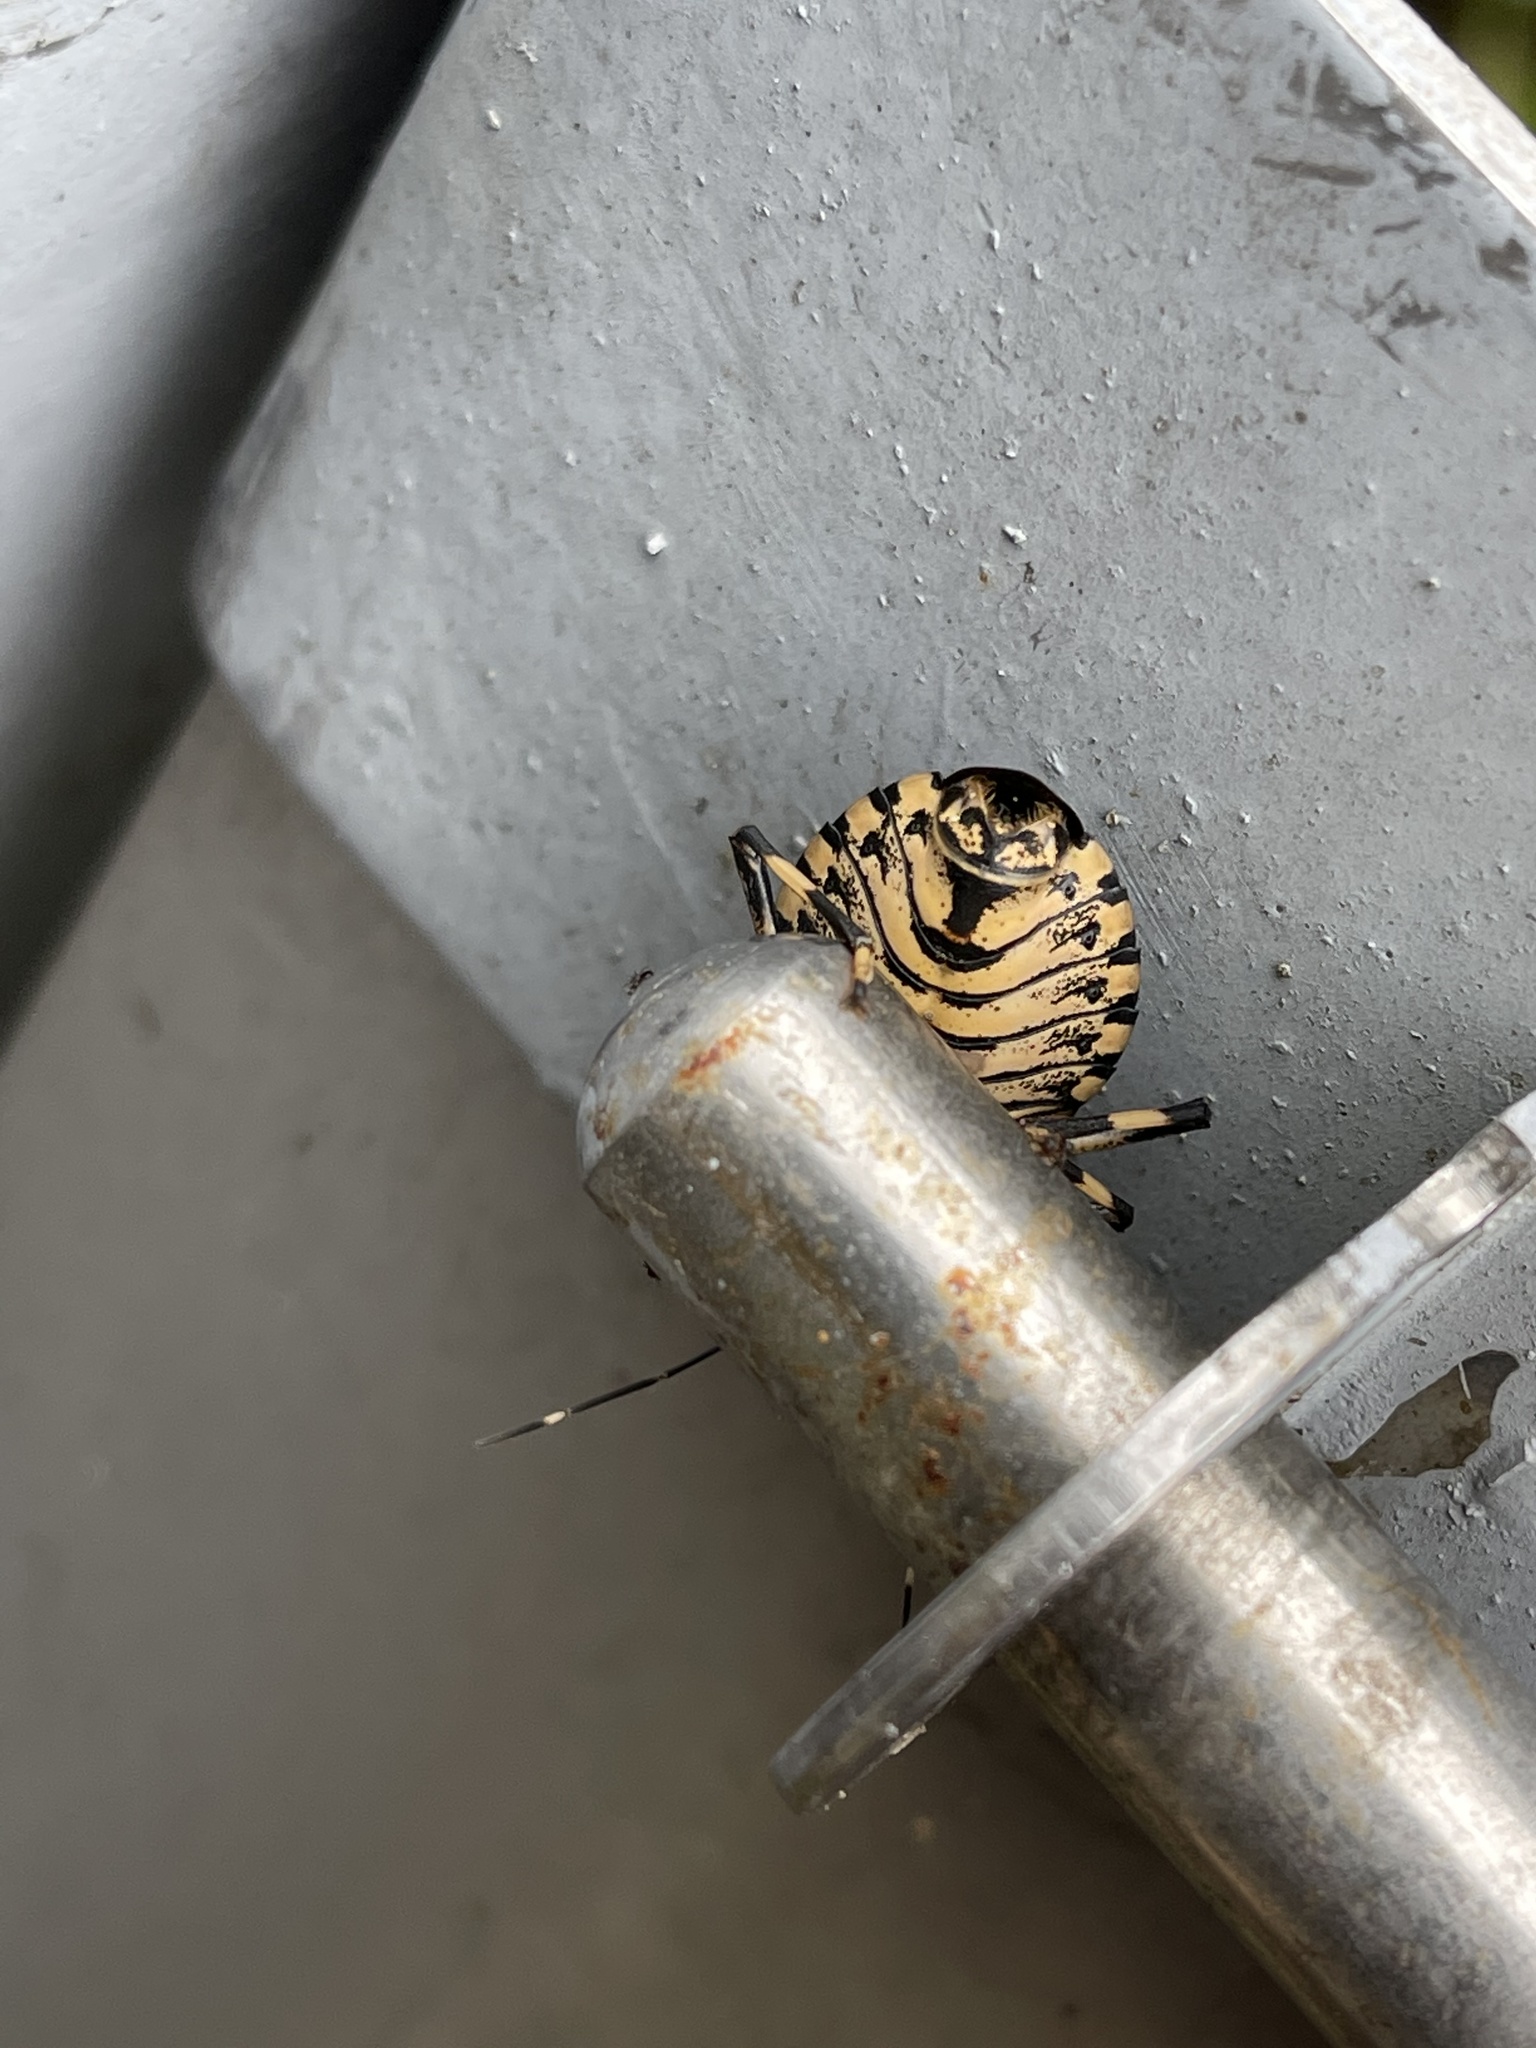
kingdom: Animalia
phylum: Arthropoda
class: Insecta
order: Hemiptera
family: Pentatomidae
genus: Erthesina
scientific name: Erthesina fullo
